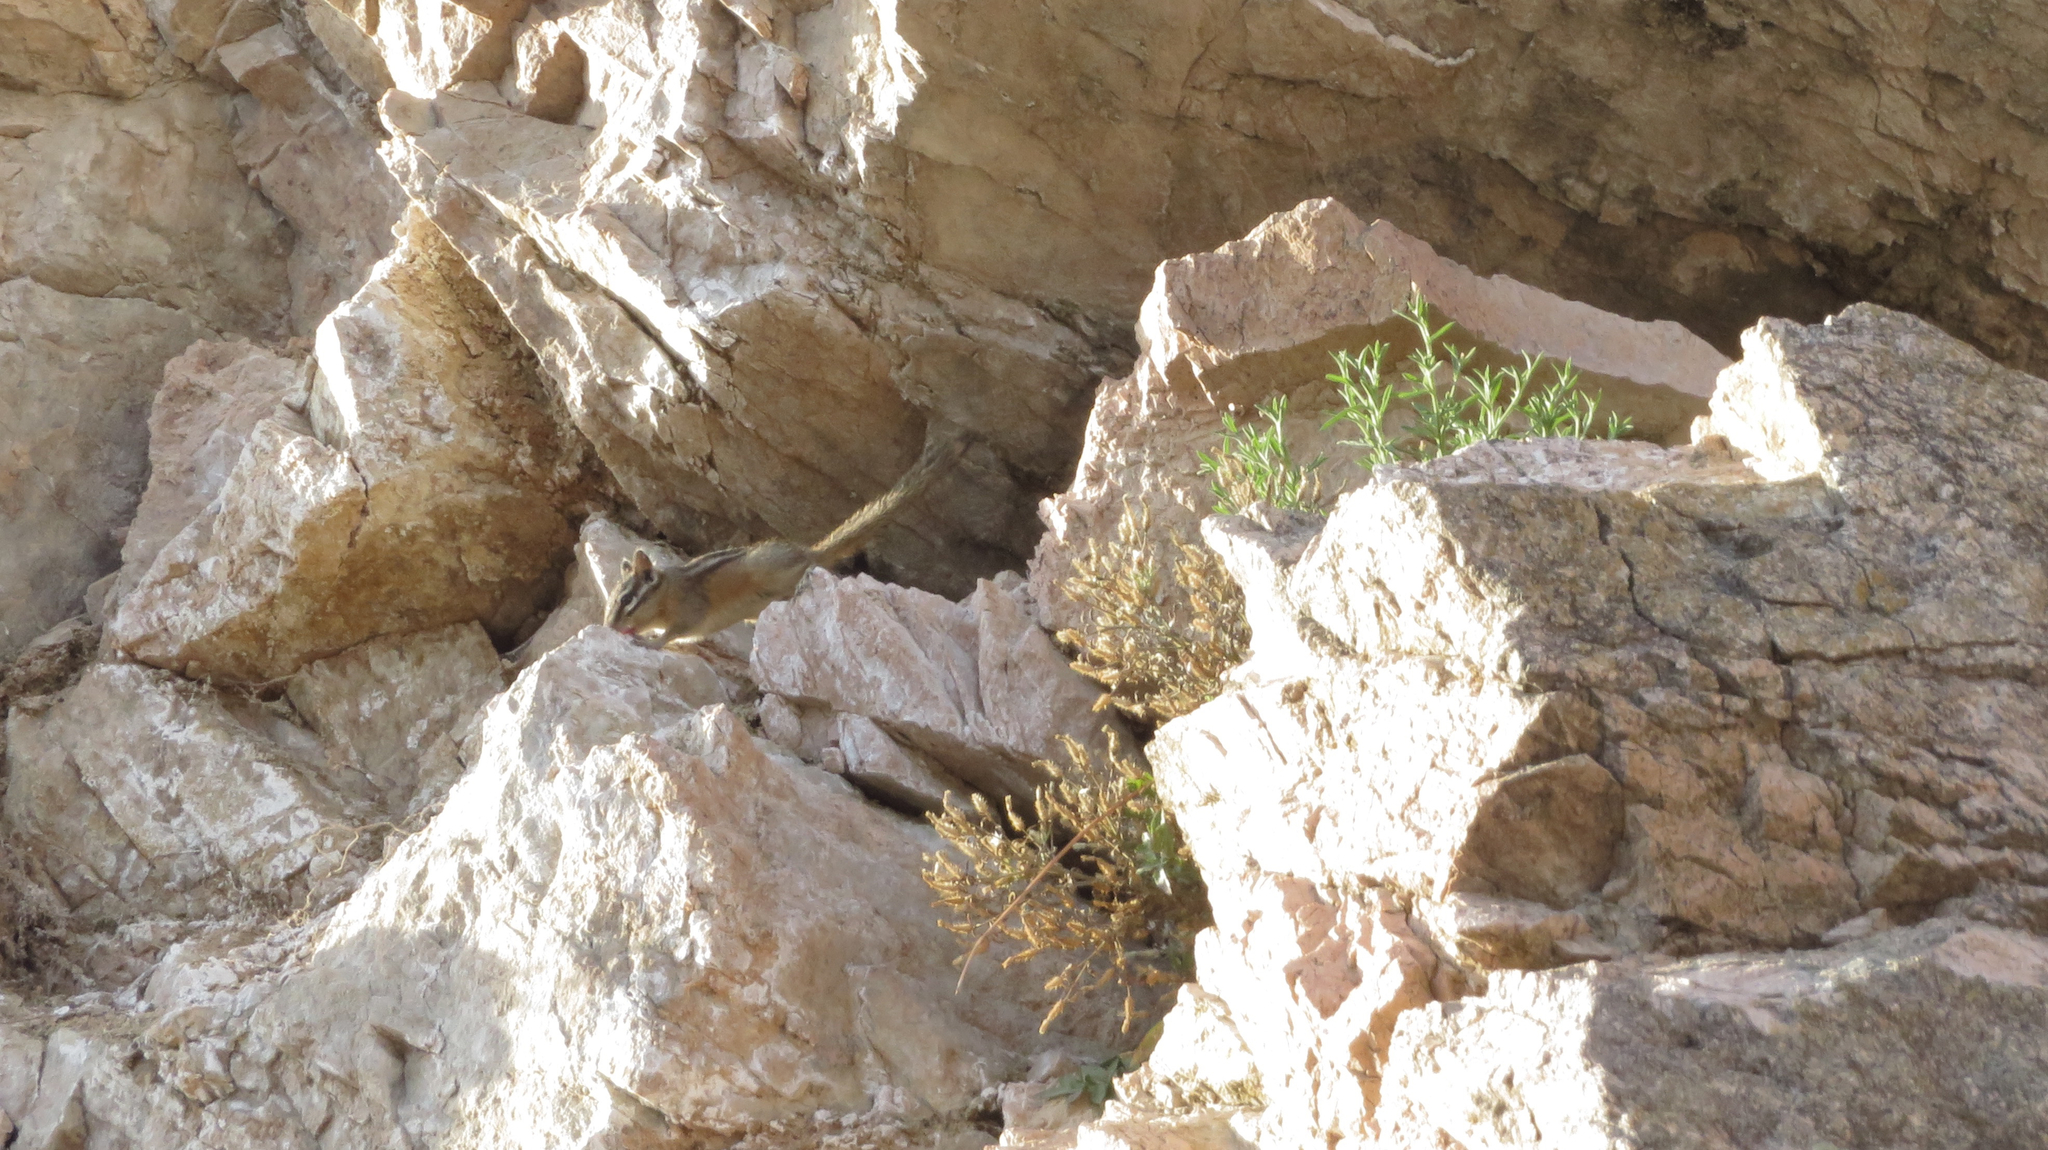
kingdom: Animalia
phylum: Chordata
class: Mammalia
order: Rodentia
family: Sciuridae
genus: Tamias
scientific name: Tamias amoenus
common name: Yellow-pine chipmunk
